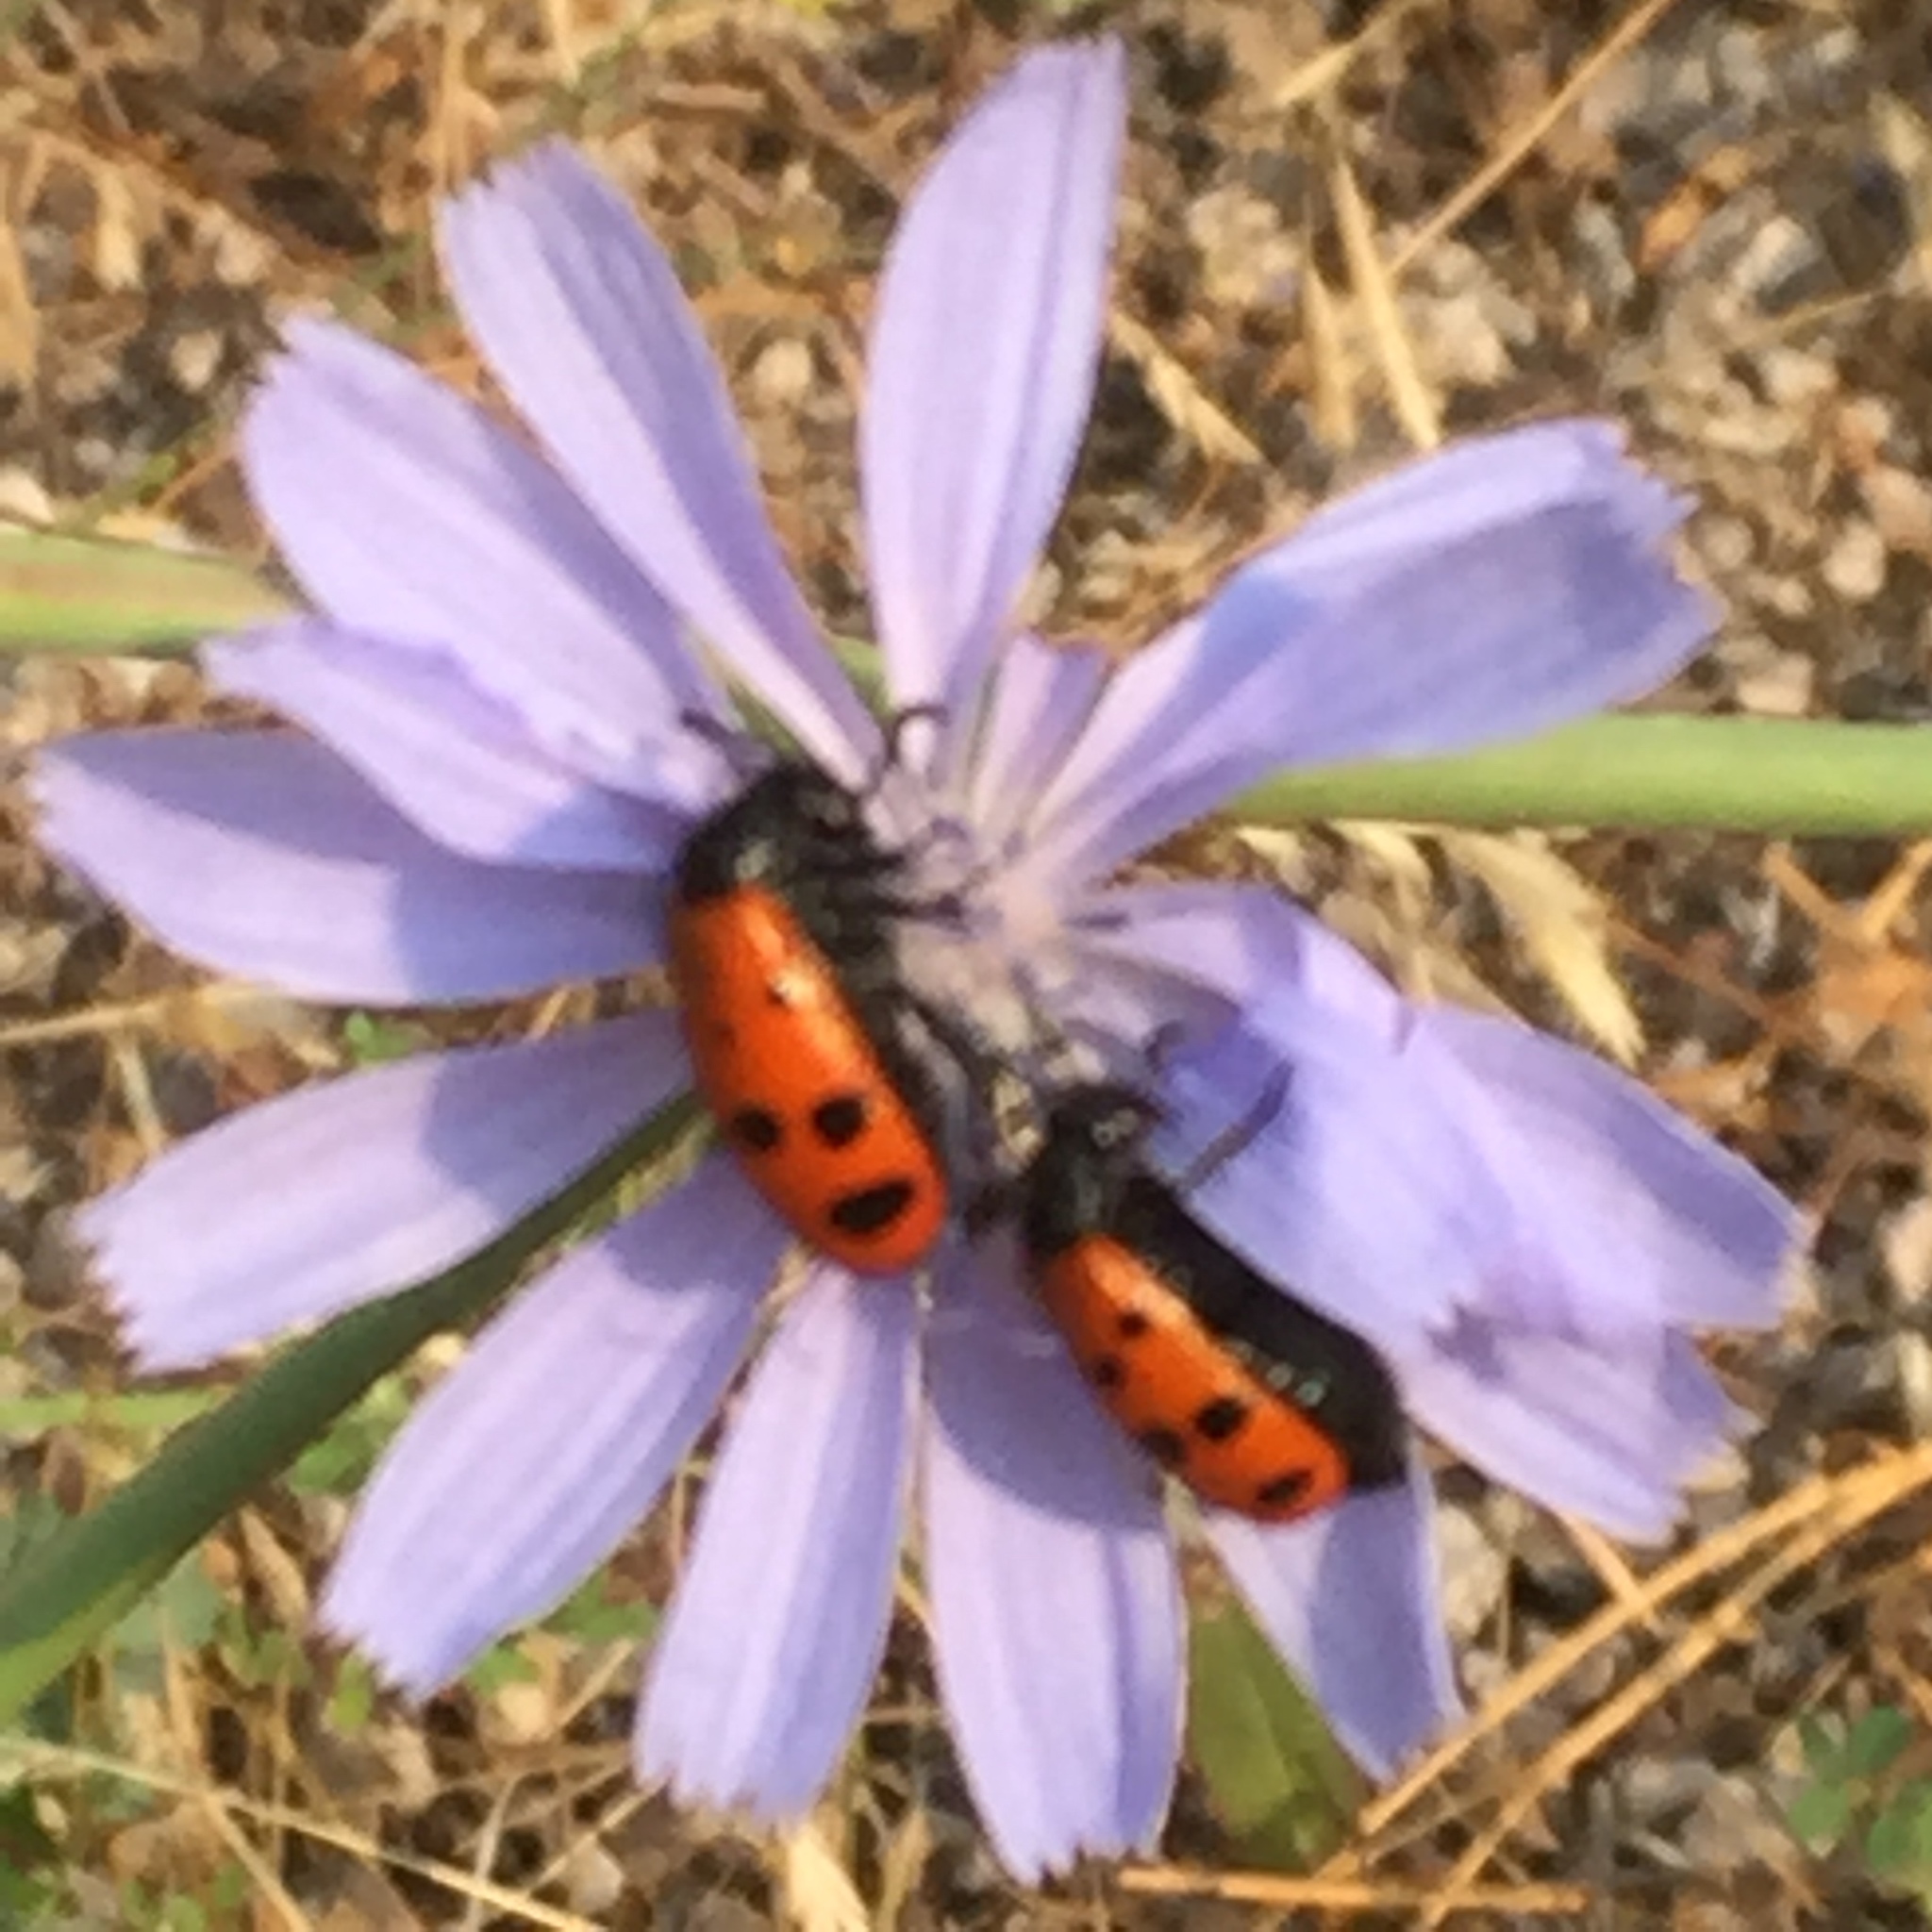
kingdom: Plantae
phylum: Tracheophyta
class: Magnoliopsida
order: Asterales
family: Asteraceae
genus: Cichorium
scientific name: Cichorium intybus
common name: Chicory
